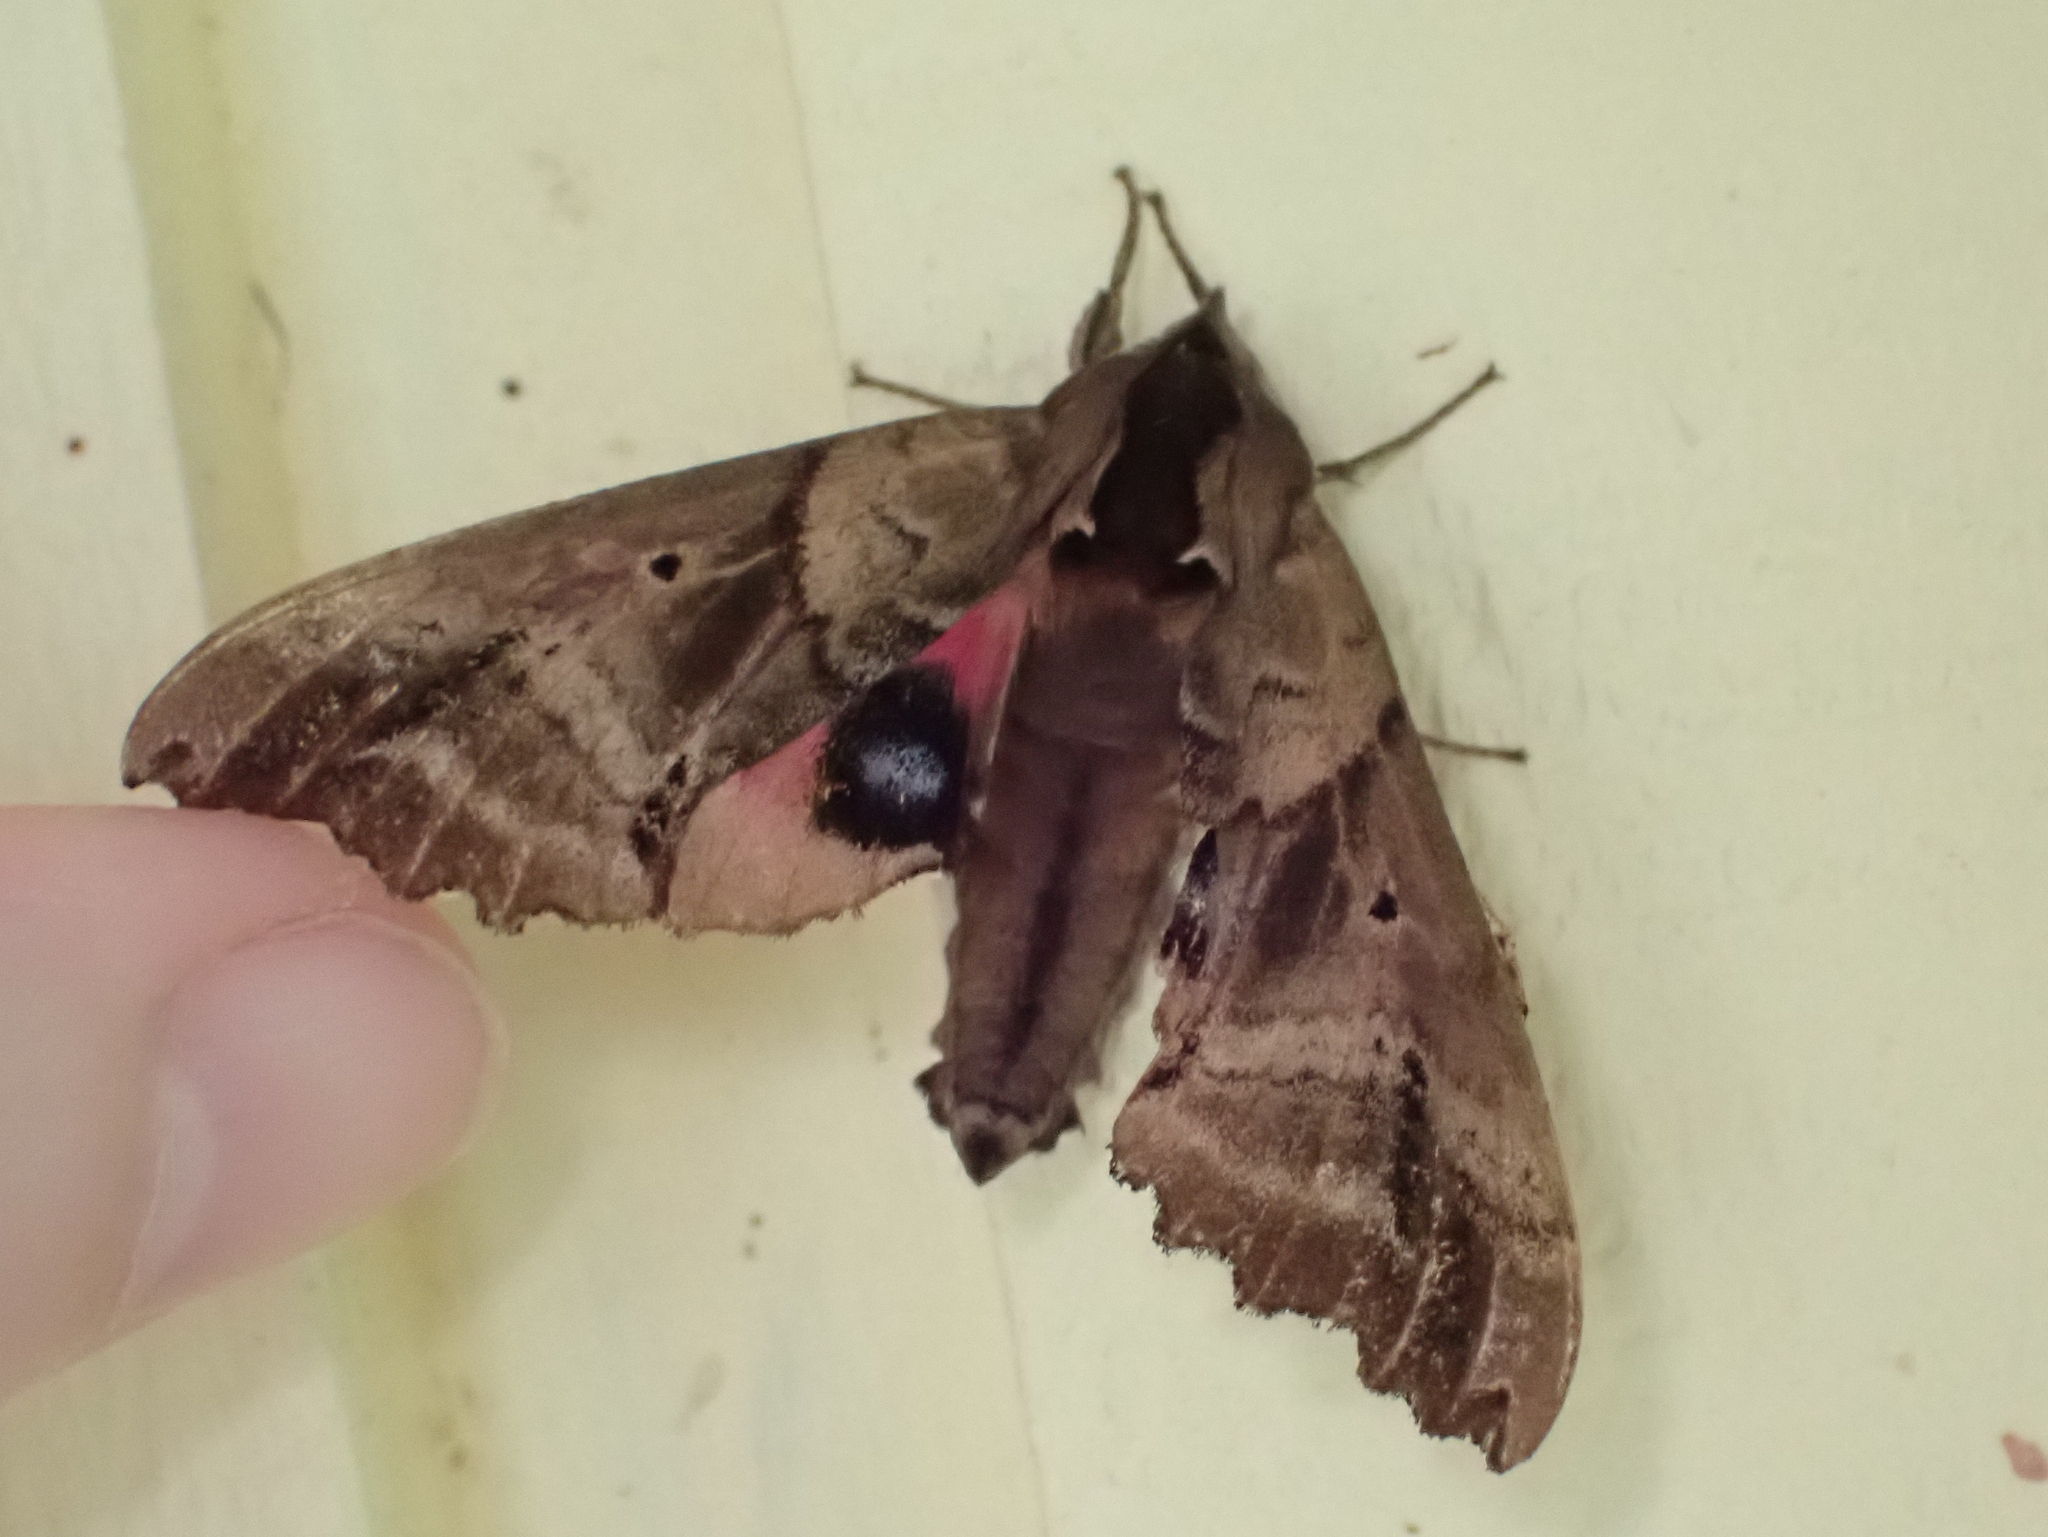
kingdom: Animalia
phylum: Arthropoda
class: Insecta
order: Lepidoptera
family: Sphingidae
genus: Paonias
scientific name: Paonias excaecata
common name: Blind-eyed sphinx
